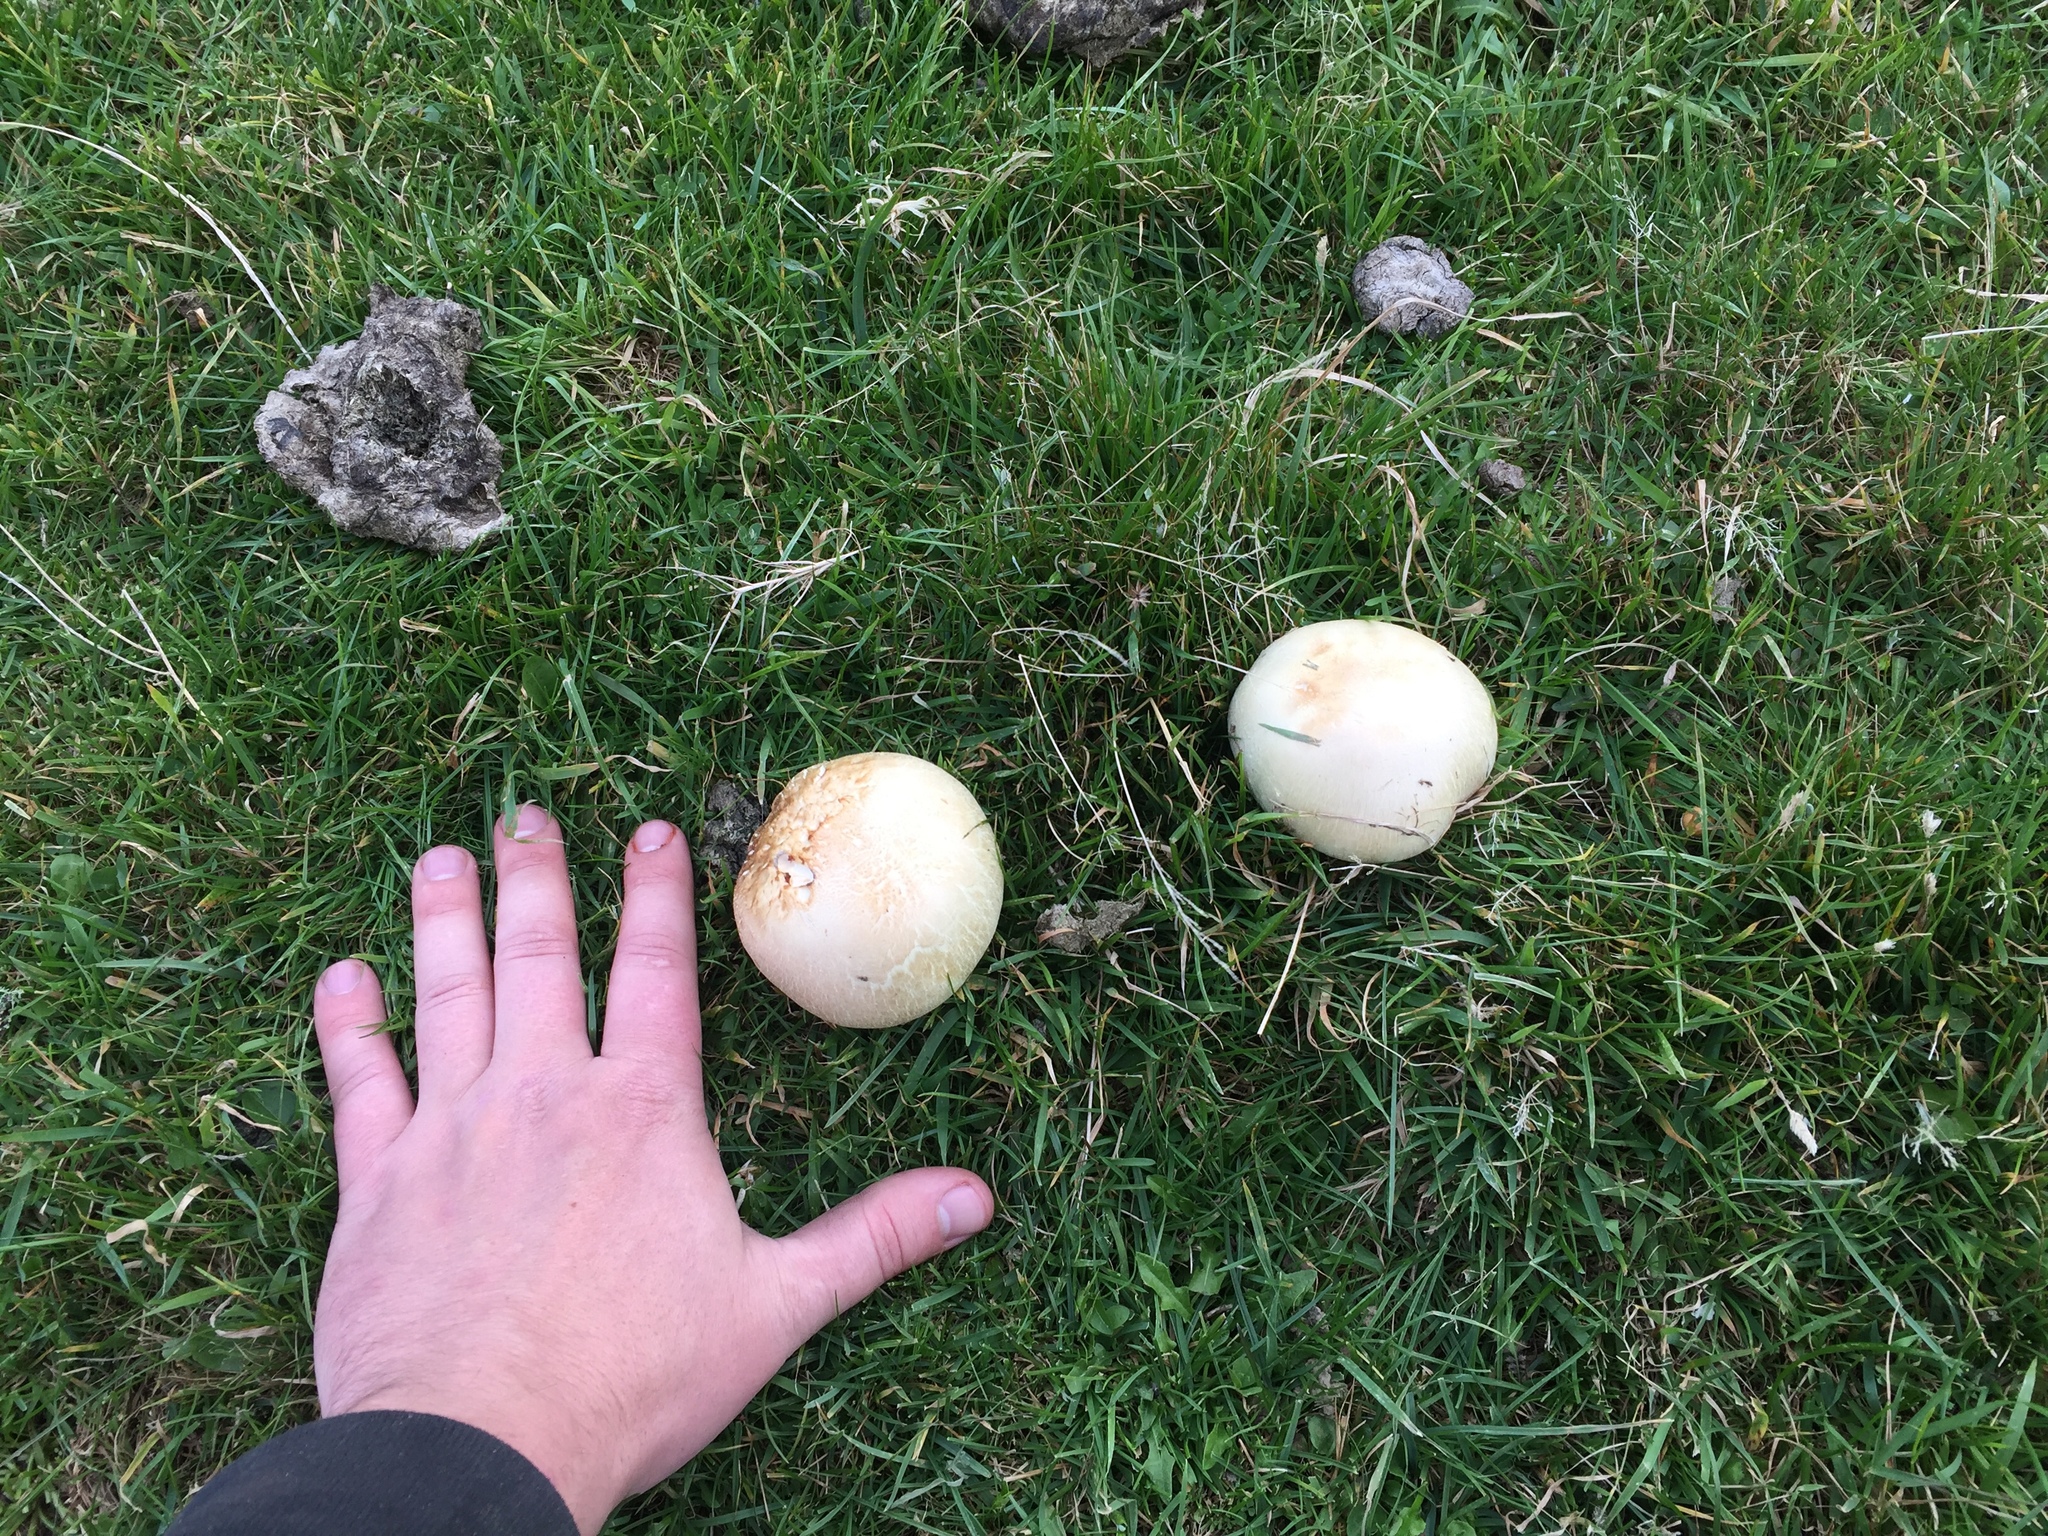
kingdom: Fungi
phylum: Basidiomycota
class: Agaricomycetes
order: Agaricales
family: Agaricaceae
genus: Agaricus
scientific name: Agaricus arvensis
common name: Horse mushroom
